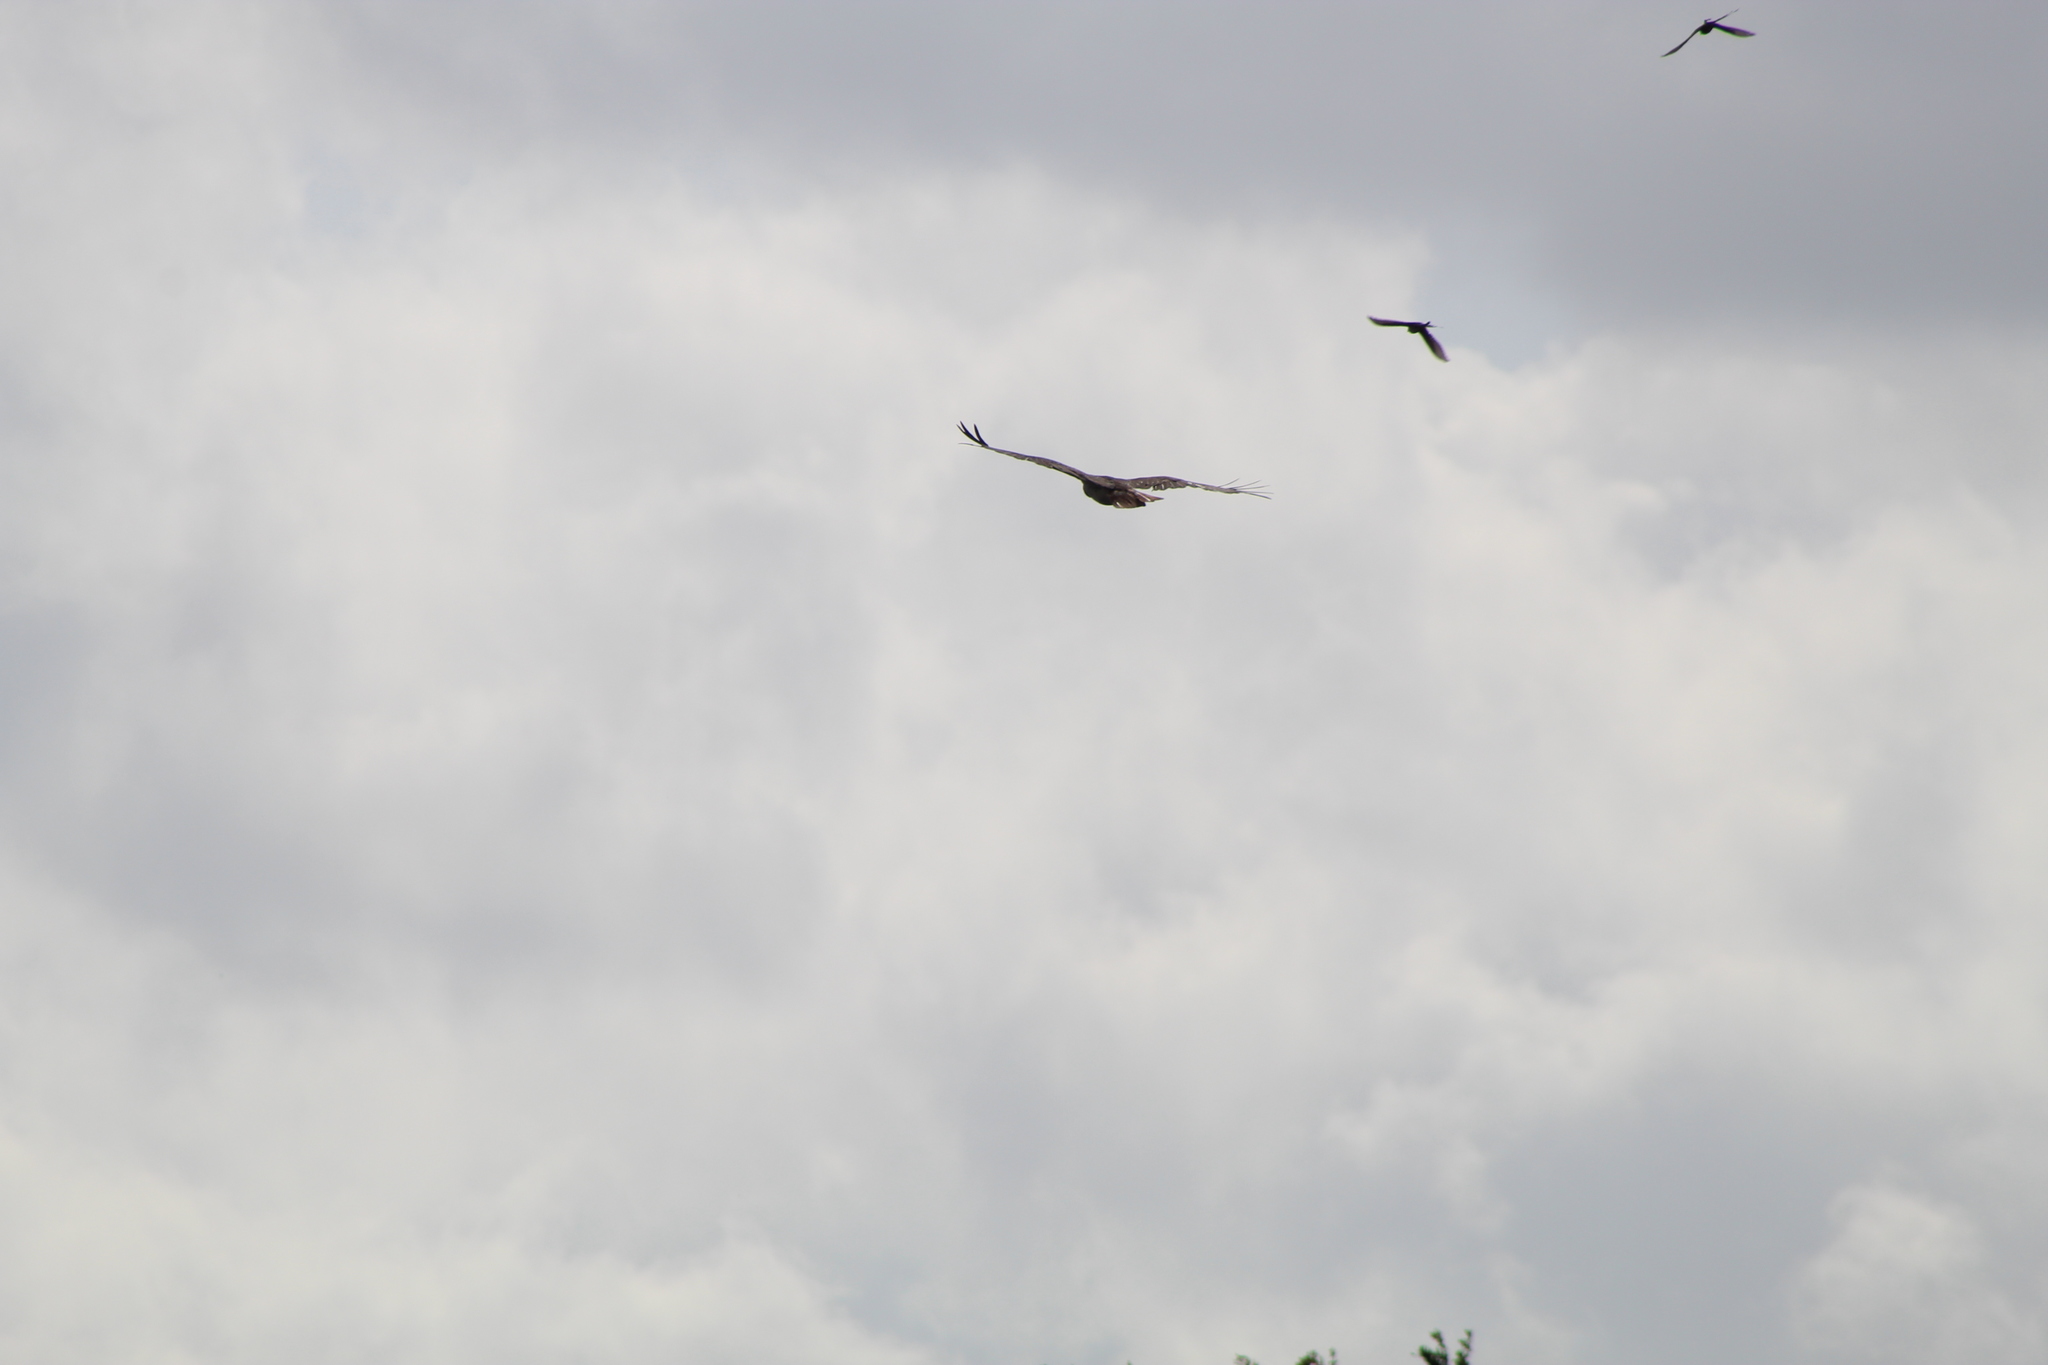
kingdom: Animalia
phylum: Chordata
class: Aves
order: Accipitriformes
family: Accipitridae
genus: Buteo
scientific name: Buteo jamaicensis
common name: Red-tailed hawk
